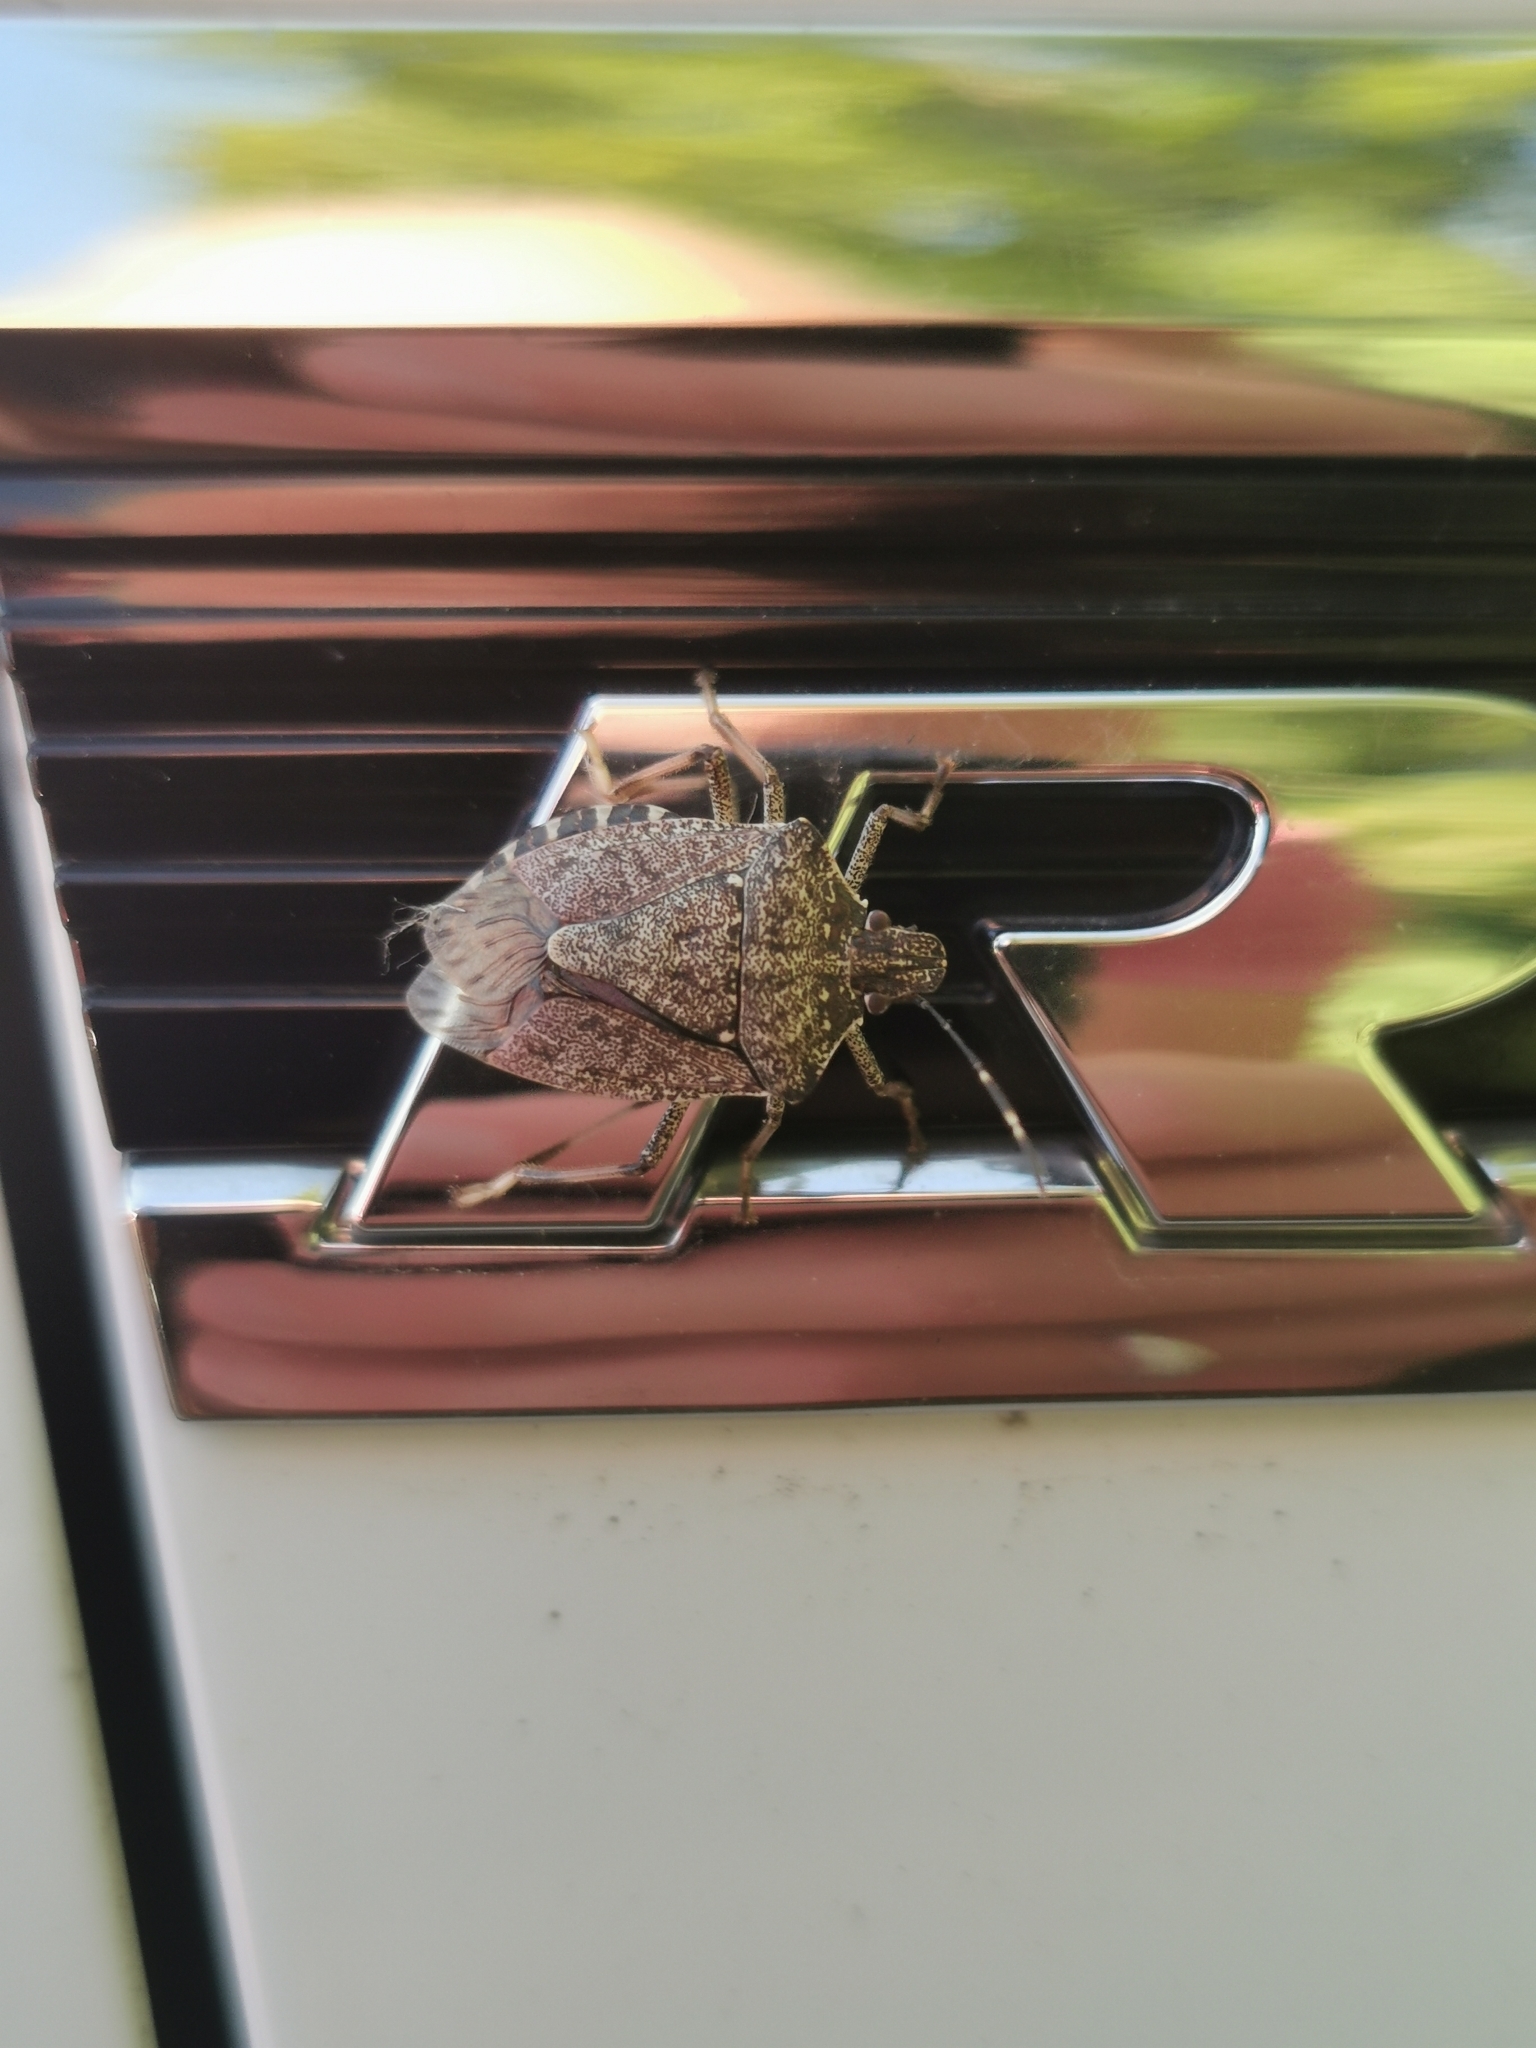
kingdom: Animalia
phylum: Arthropoda
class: Insecta
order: Hemiptera
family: Pentatomidae
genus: Halyomorpha
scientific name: Halyomorpha halys
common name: Brown marmorated stink bug
